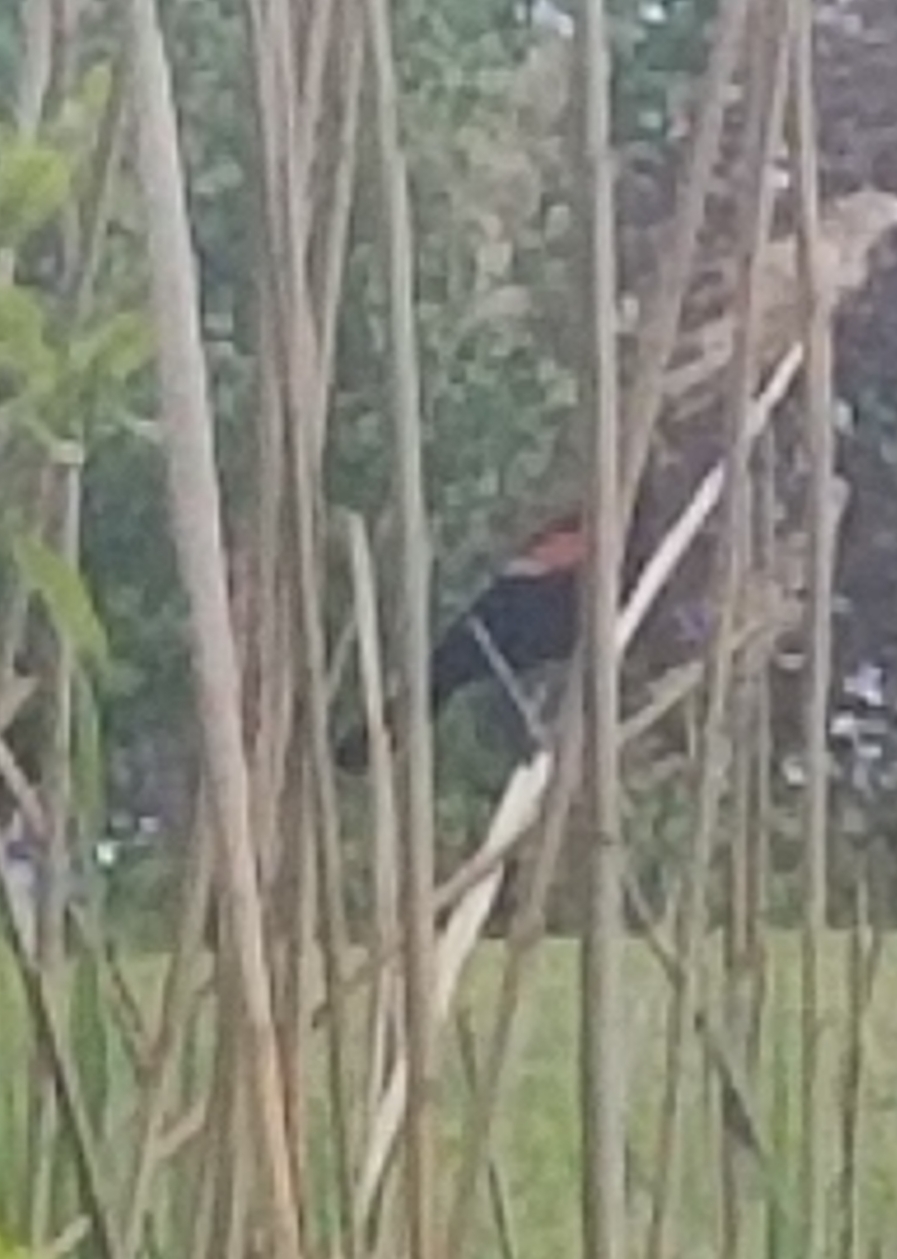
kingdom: Animalia
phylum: Chordata
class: Aves
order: Passeriformes
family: Icteridae
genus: Agelaius
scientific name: Agelaius phoeniceus
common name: Red-winged blackbird
